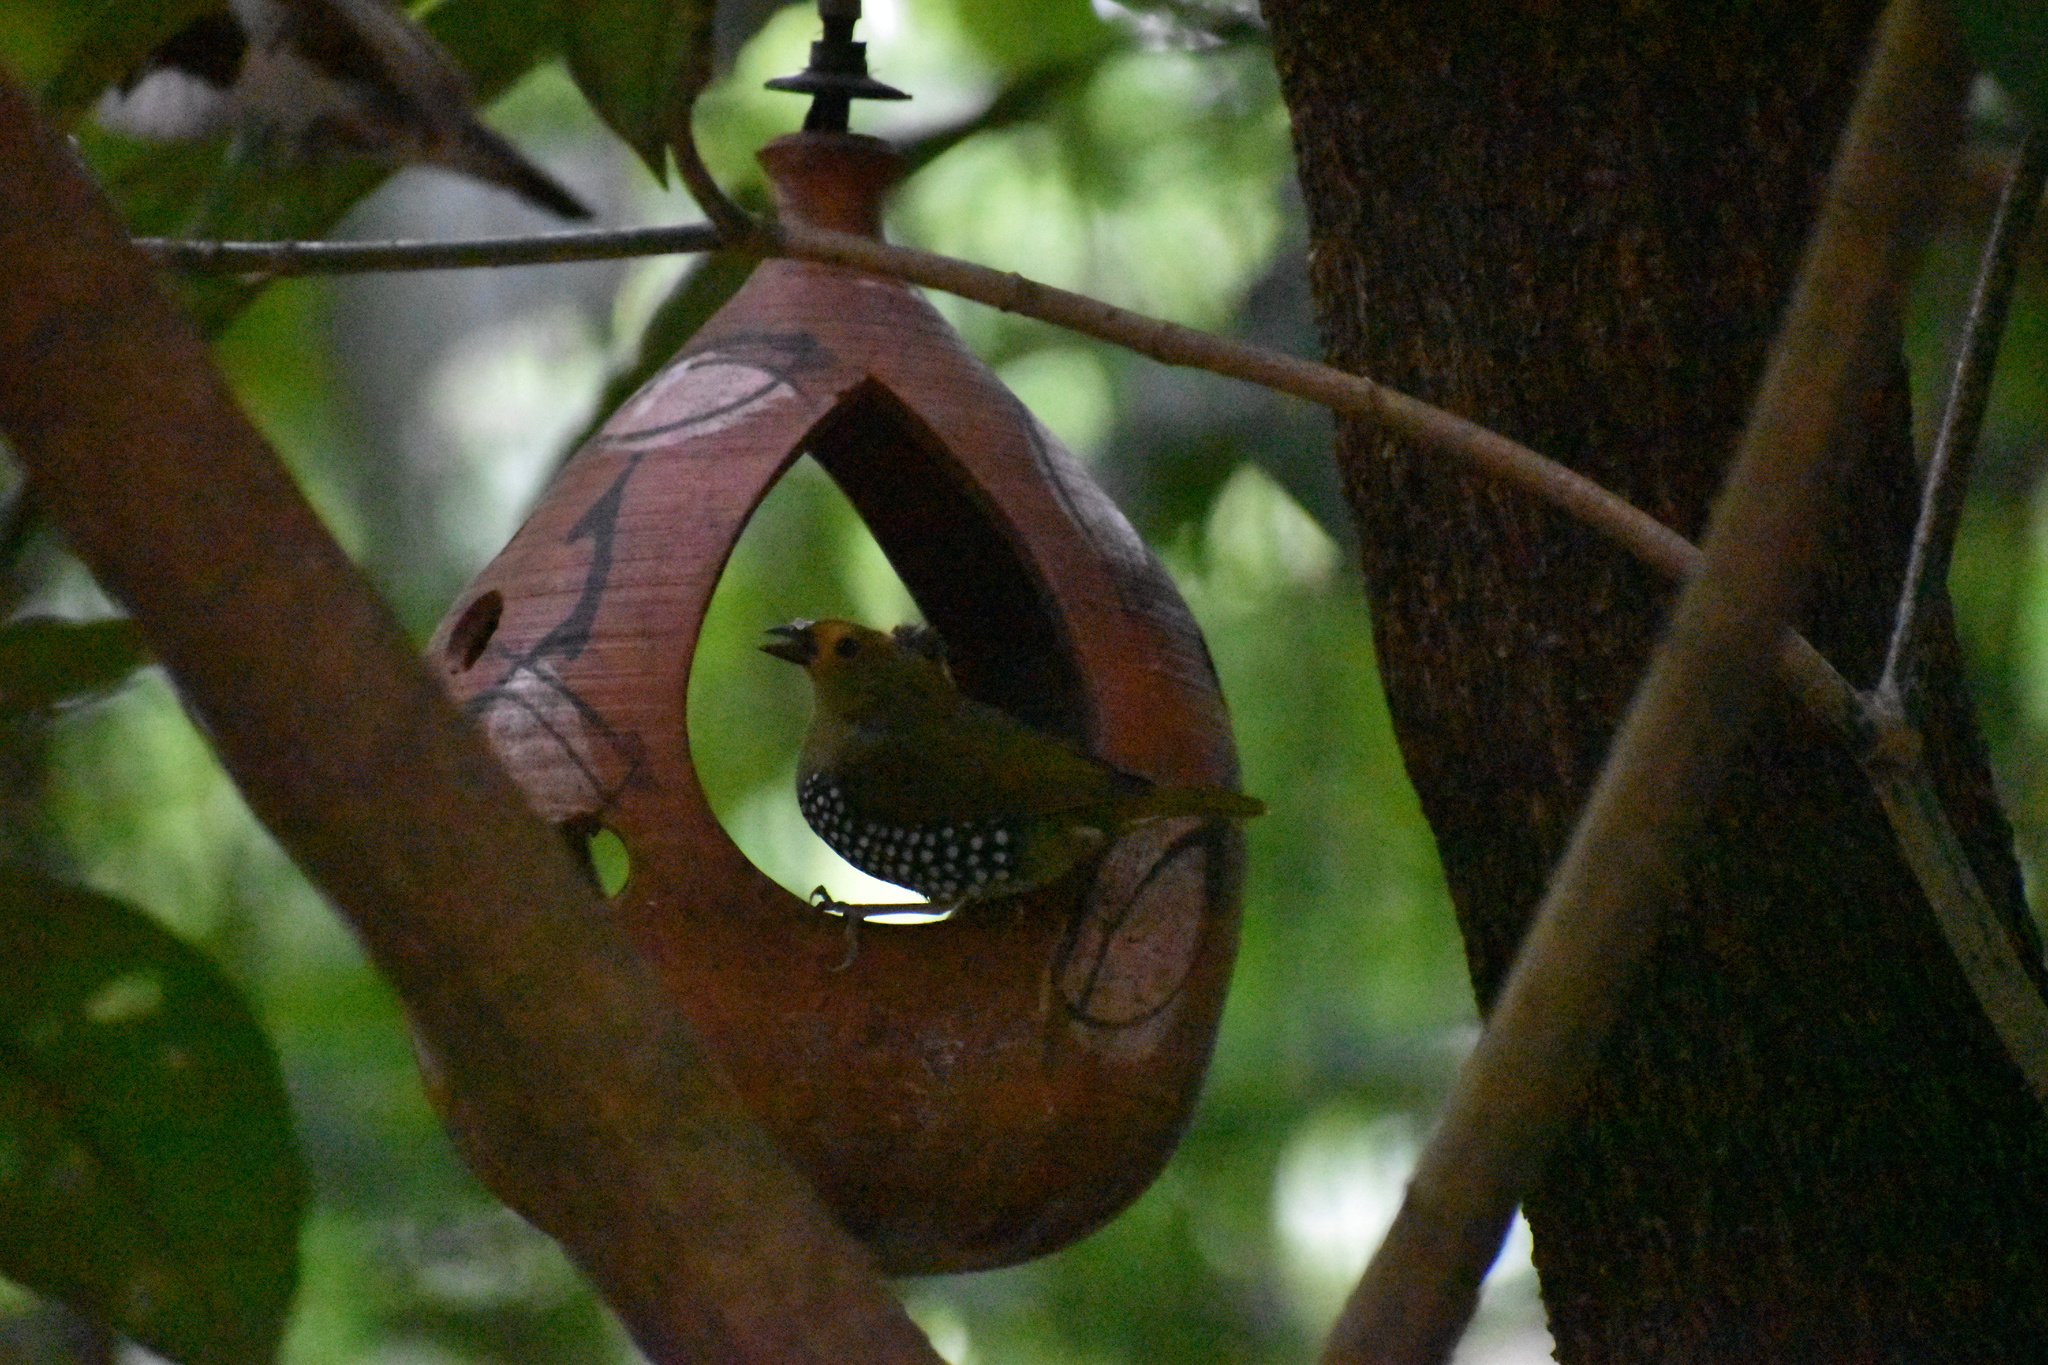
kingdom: Animalia
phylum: Chordata
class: Aves
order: Passeriformes
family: Estrildidae
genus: Mandingoa
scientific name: Mandingoa nitidula
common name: Green twinspot
